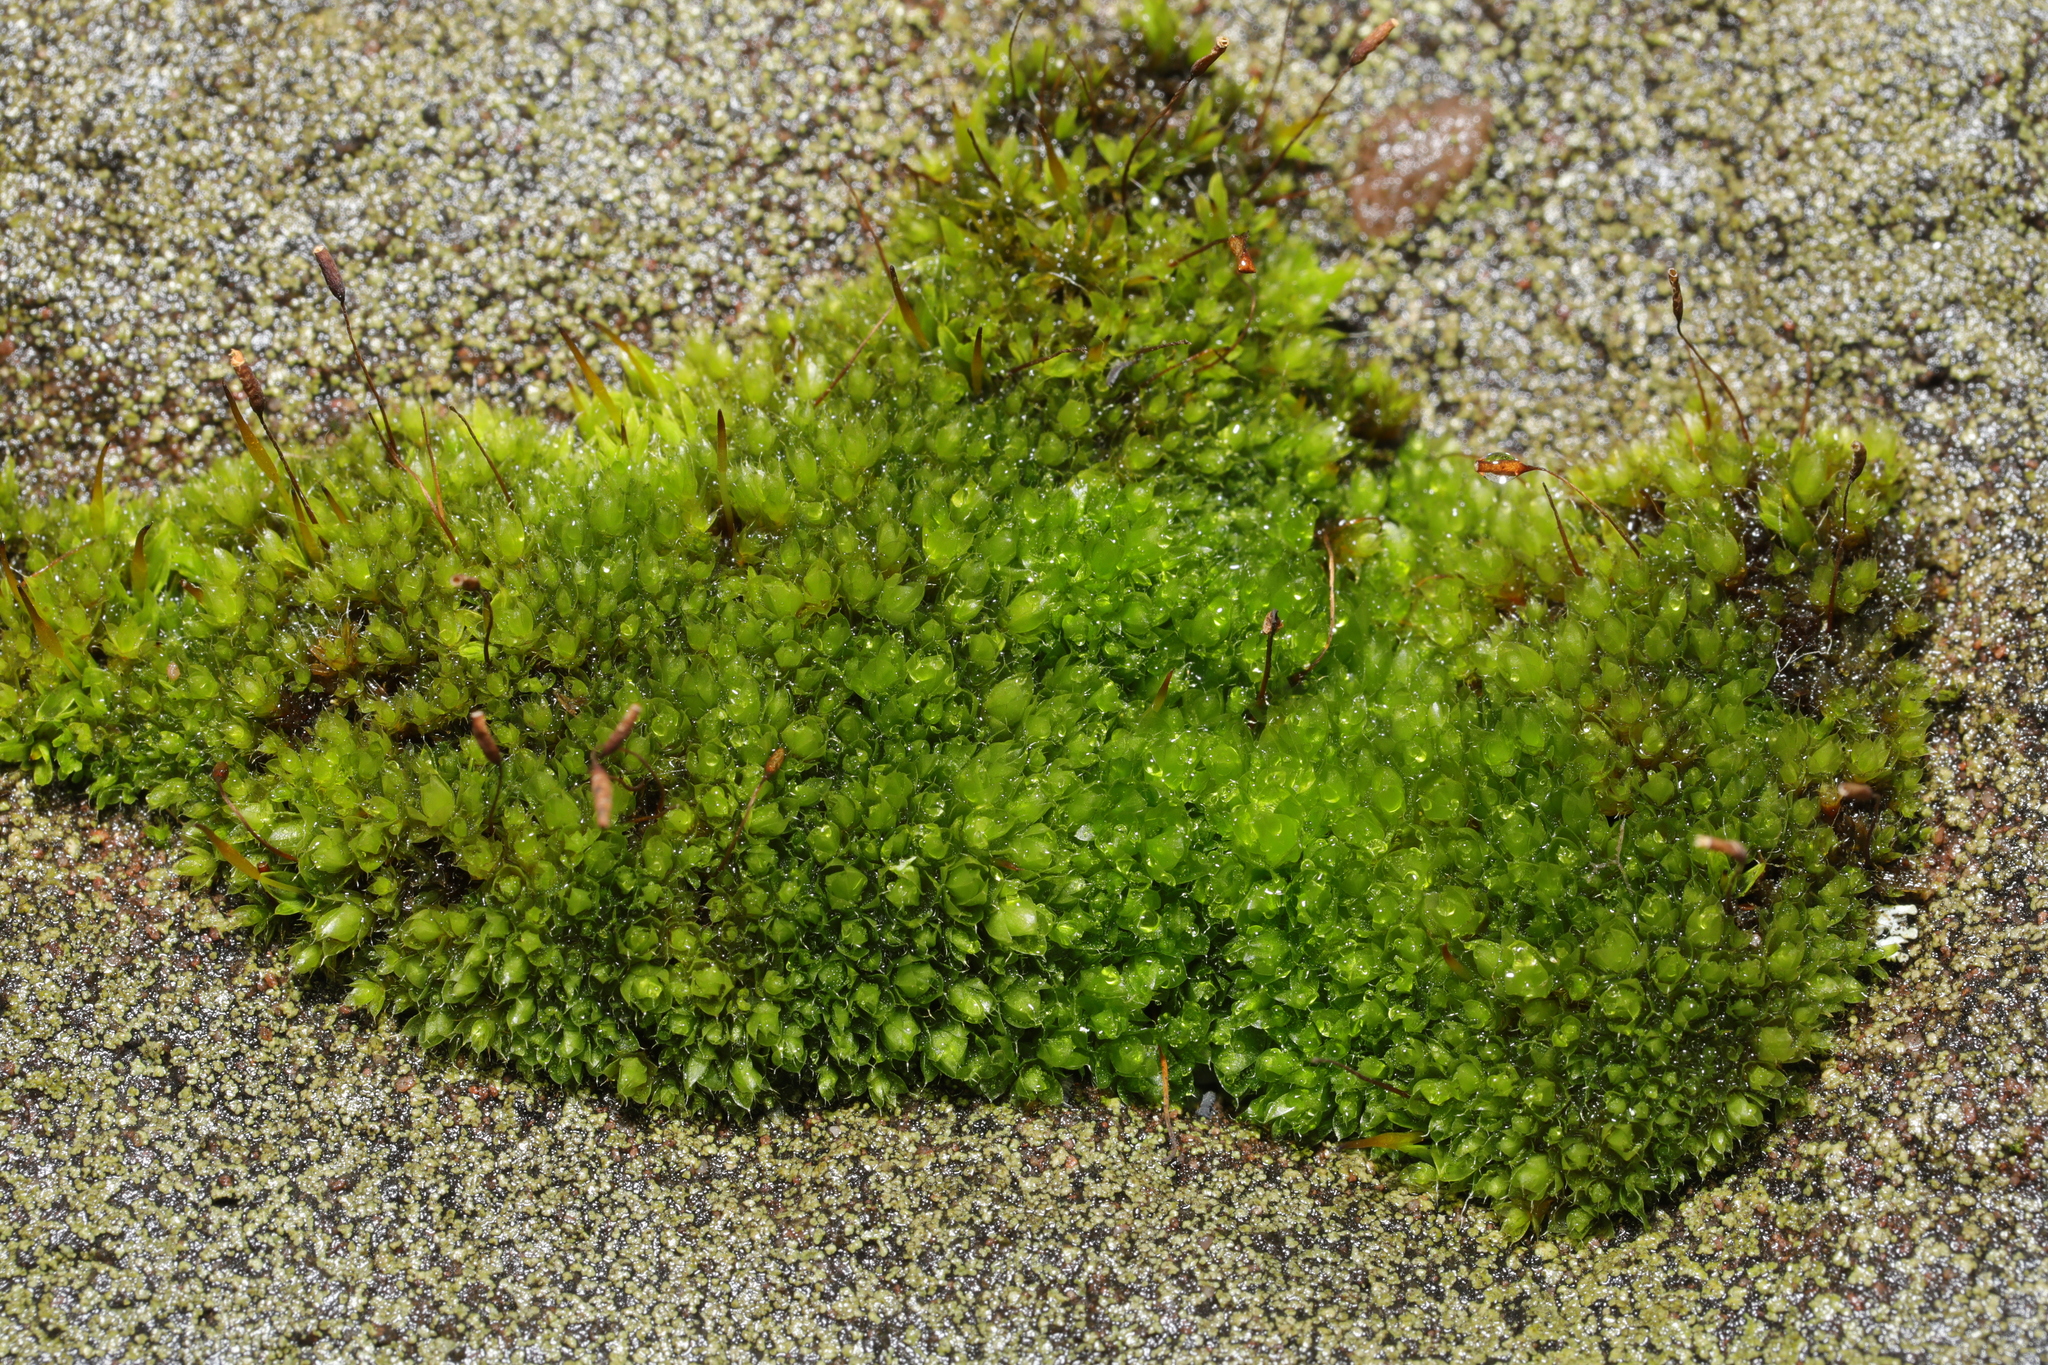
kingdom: Plantae
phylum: Bryophyta
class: Bryopsida
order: Bryales
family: Bryaceae
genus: Rosulabryum
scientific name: Rosulabryum capillare
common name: Capillary thread-moss
